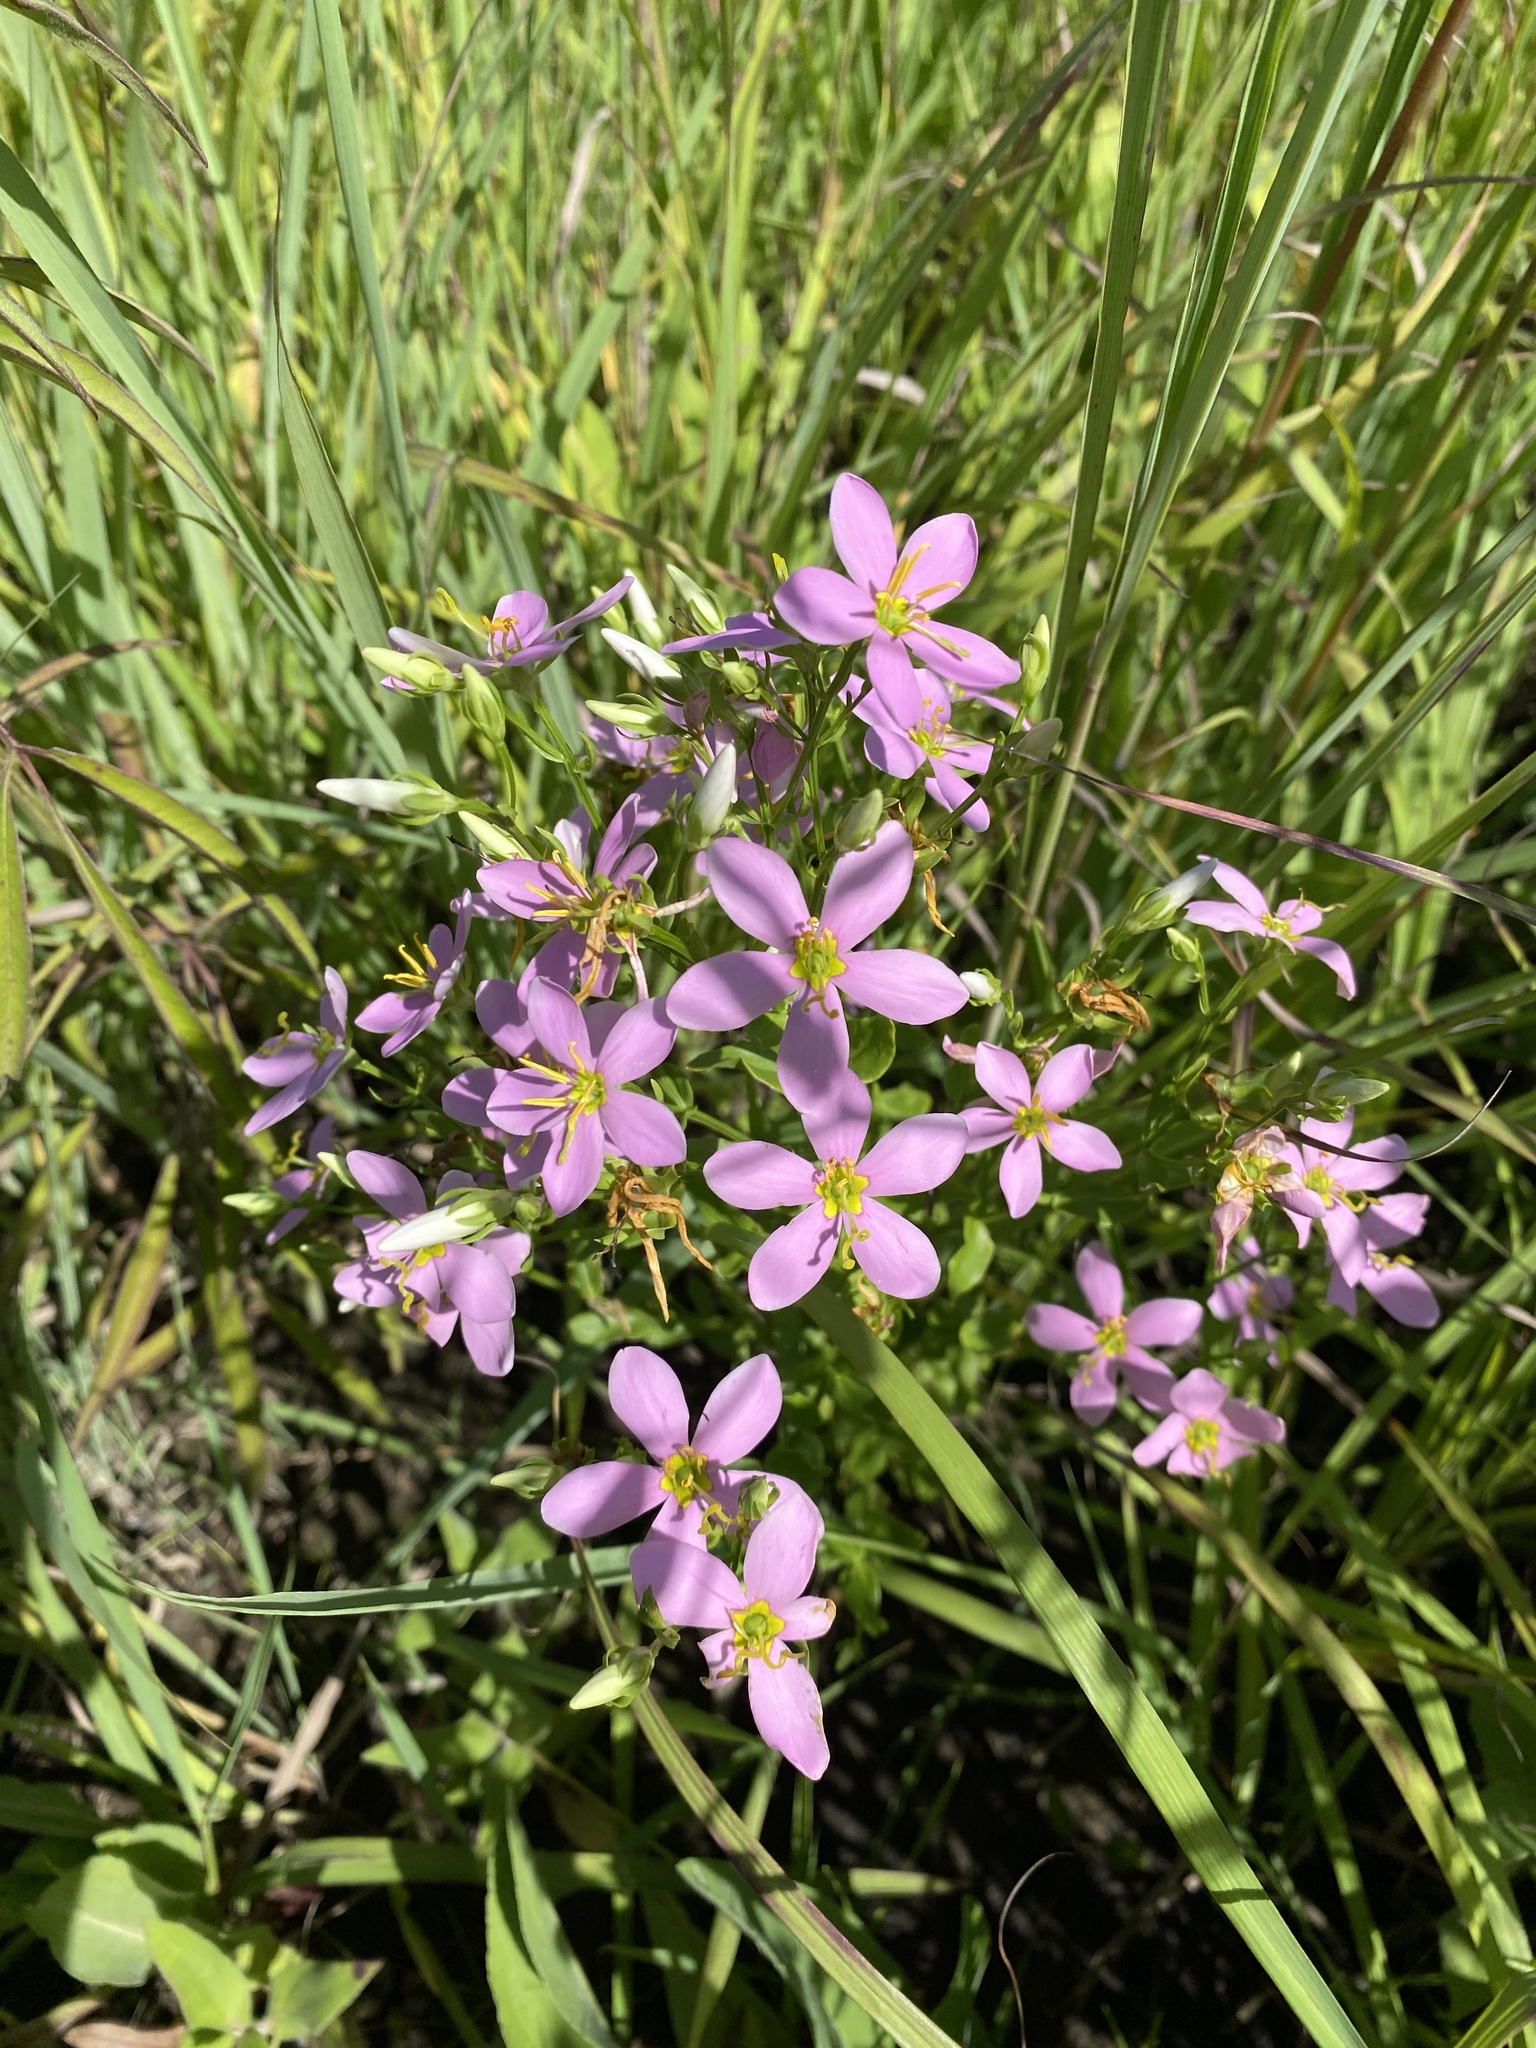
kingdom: Plantae
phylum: Tracheophyta
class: Magnoliopsida
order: Gentianales
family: Gentianaceae
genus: Sabatia
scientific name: Sabatia angularis
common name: Rose-pink
